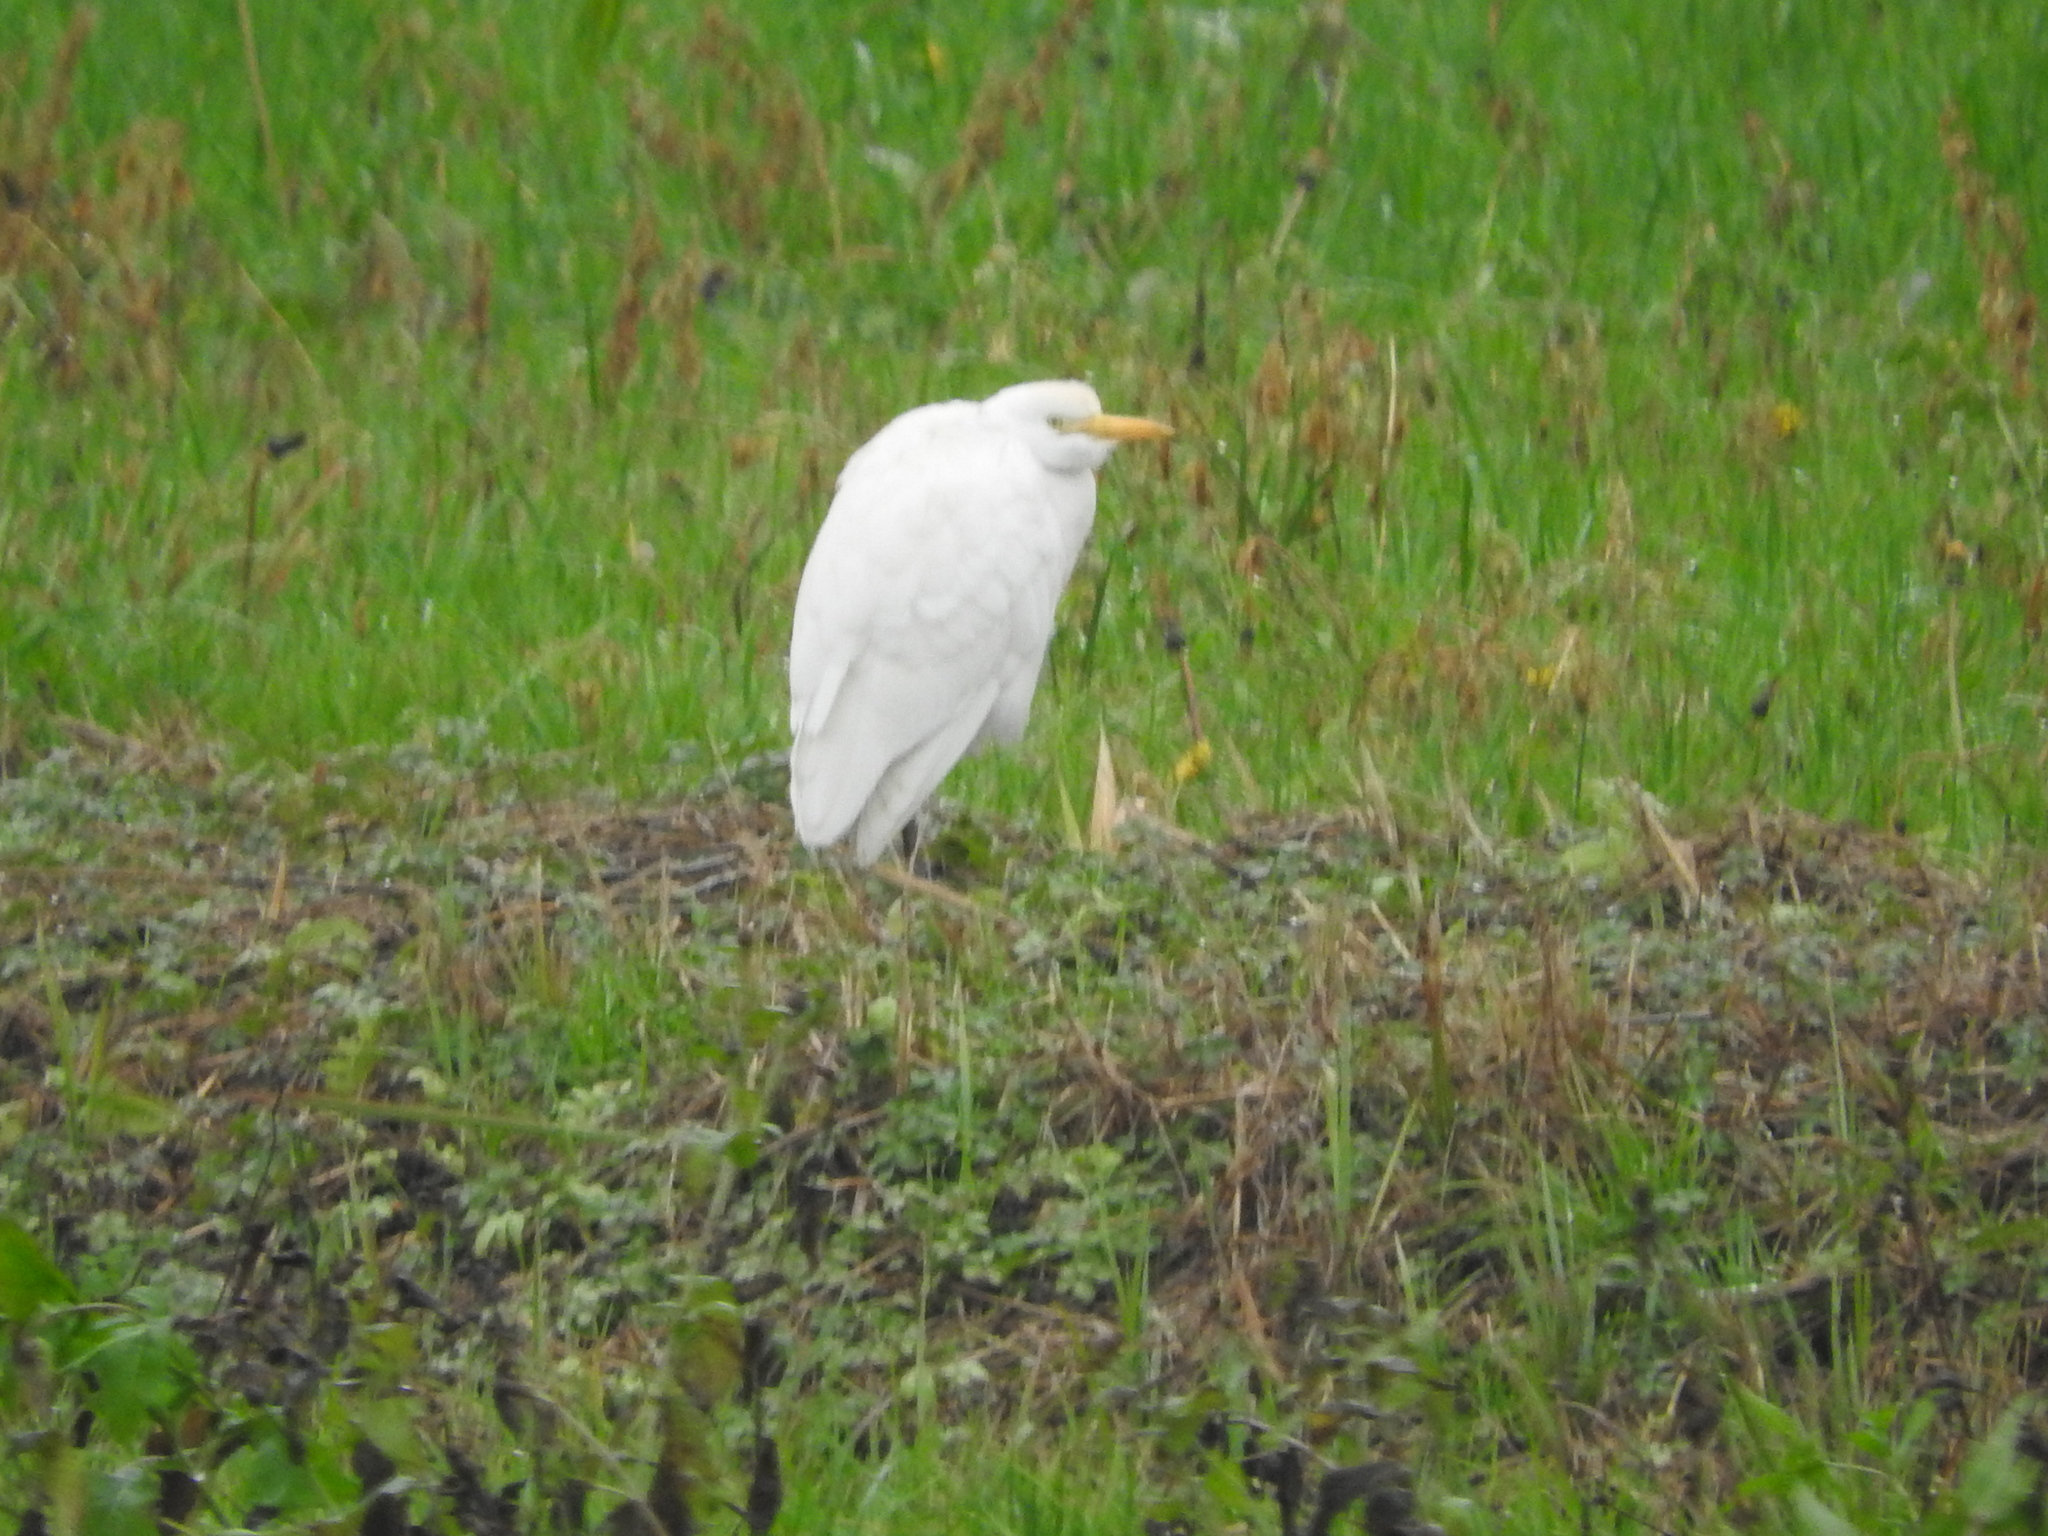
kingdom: Animalia
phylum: Chordata
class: Aves
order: Pelecaniformes
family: Ardeidae
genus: Bubulcus
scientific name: Bubulcus ibis
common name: Cattle egret
